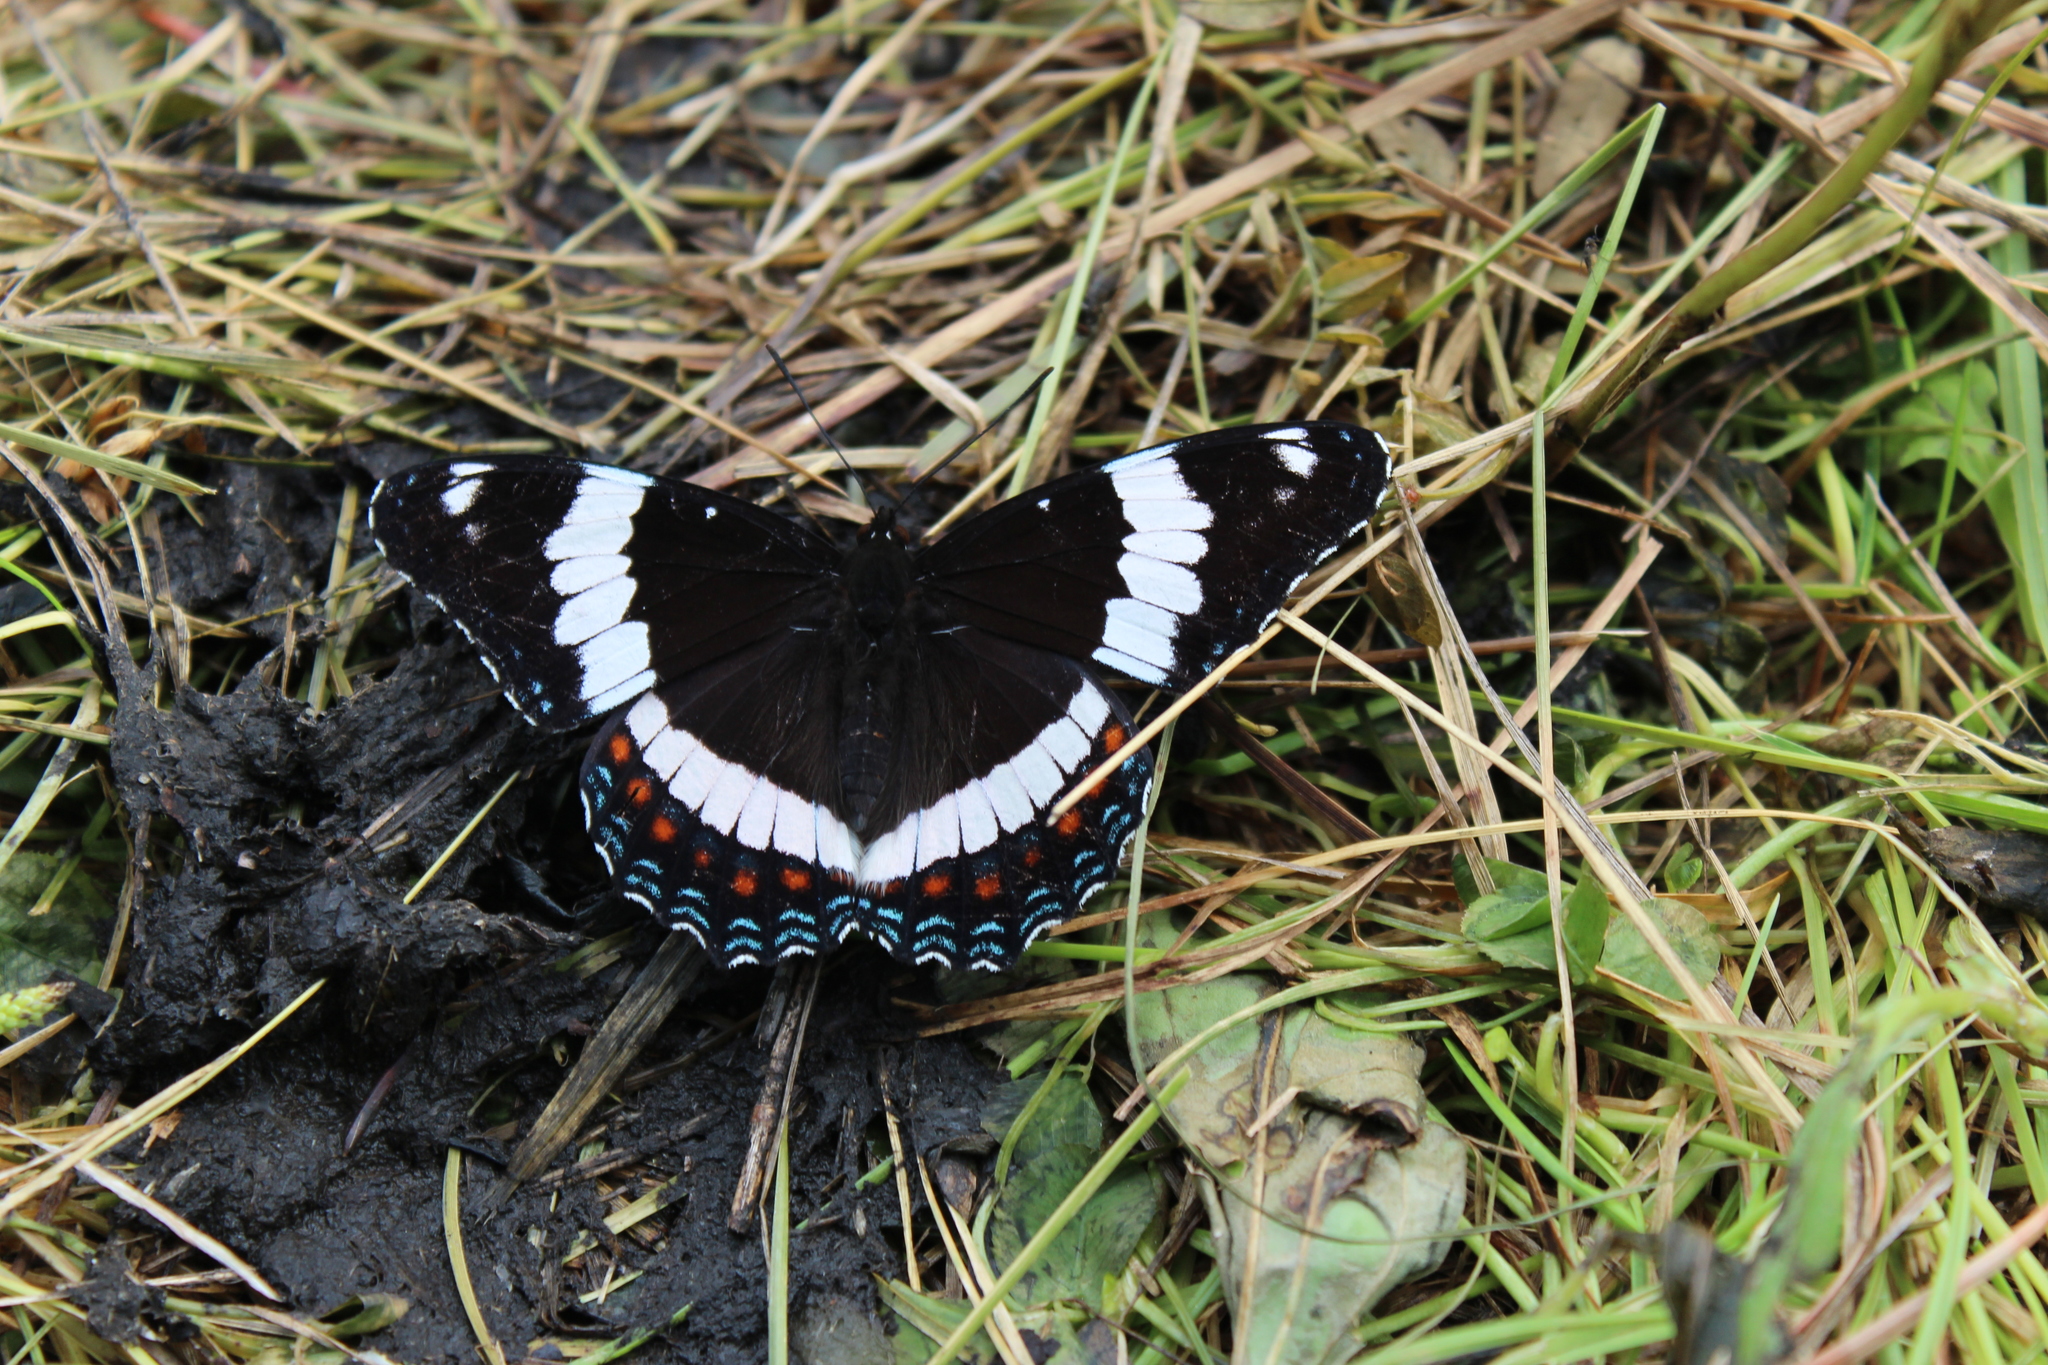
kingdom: Animalia
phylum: Arthropoda
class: Insecta
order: Lepidoptera
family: Nymphalidae
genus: Limenitis
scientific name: Limenitis arthemis
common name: Red-spotted admiral
